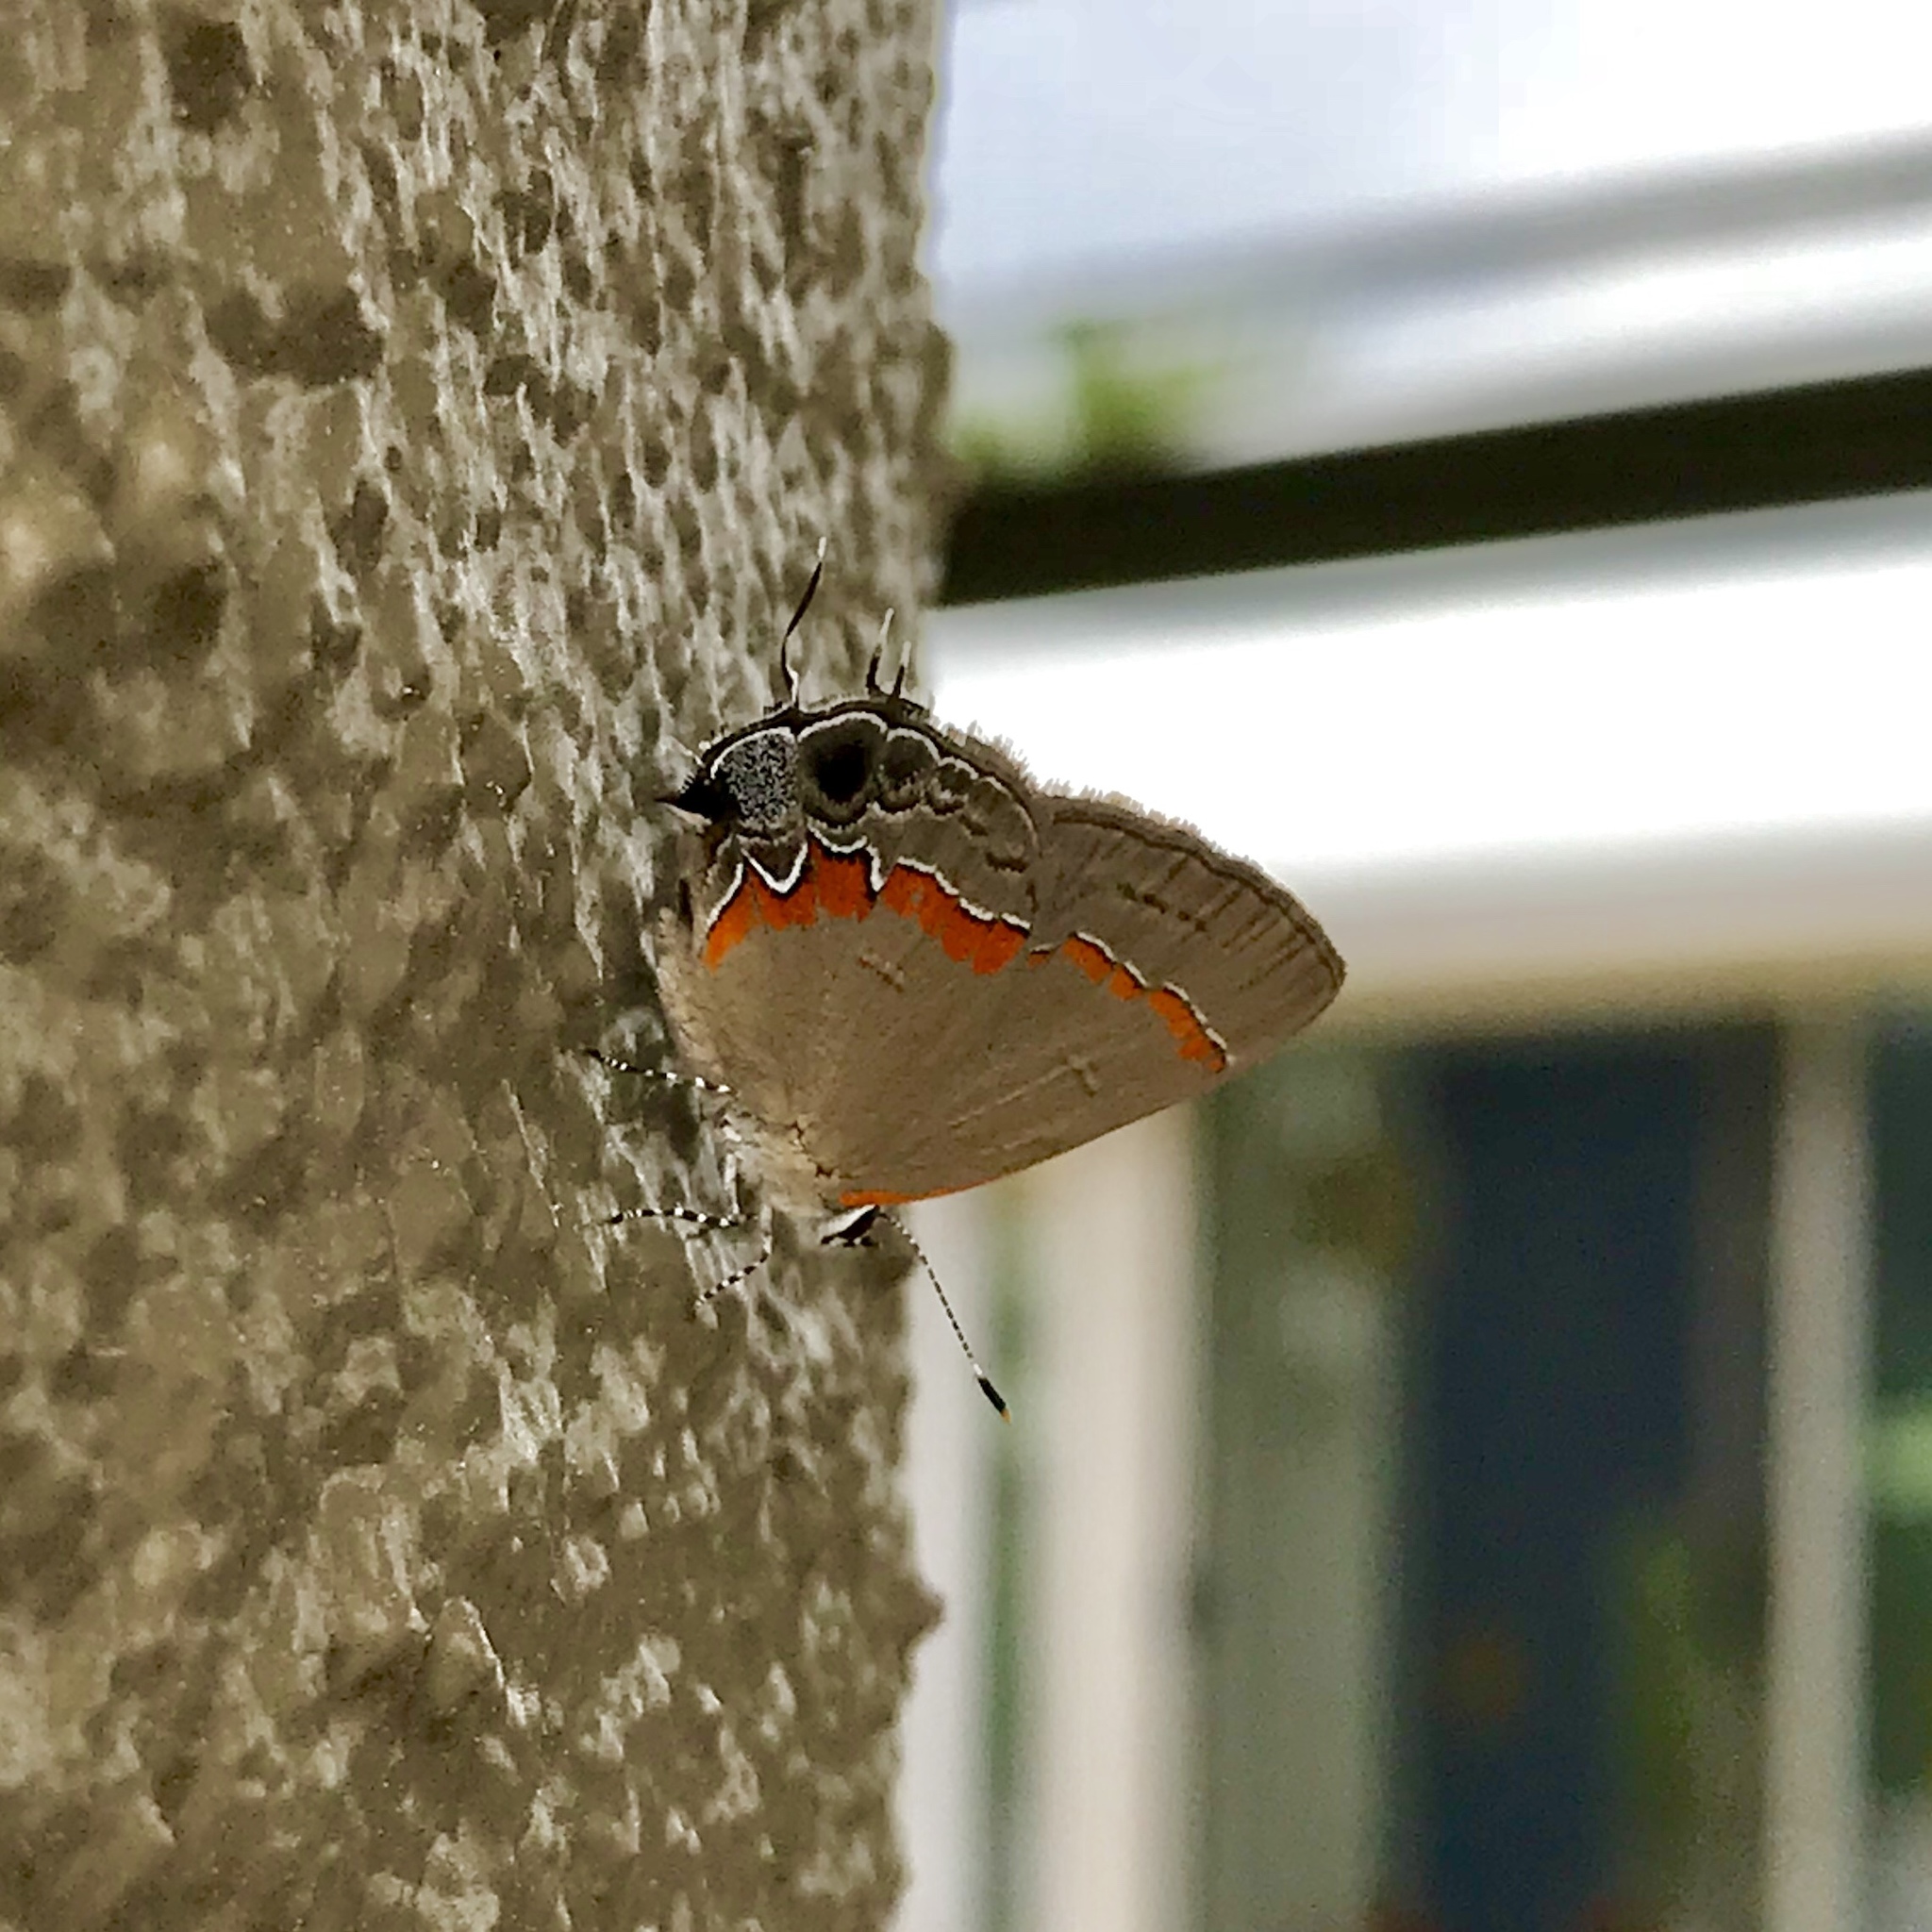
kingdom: Animalia
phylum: Arthropoda
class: Insecta
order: Lepidoptera
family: Lycaenidae
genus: Calycopis
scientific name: Calycopis cecrops
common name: Red-banded hairstreak
